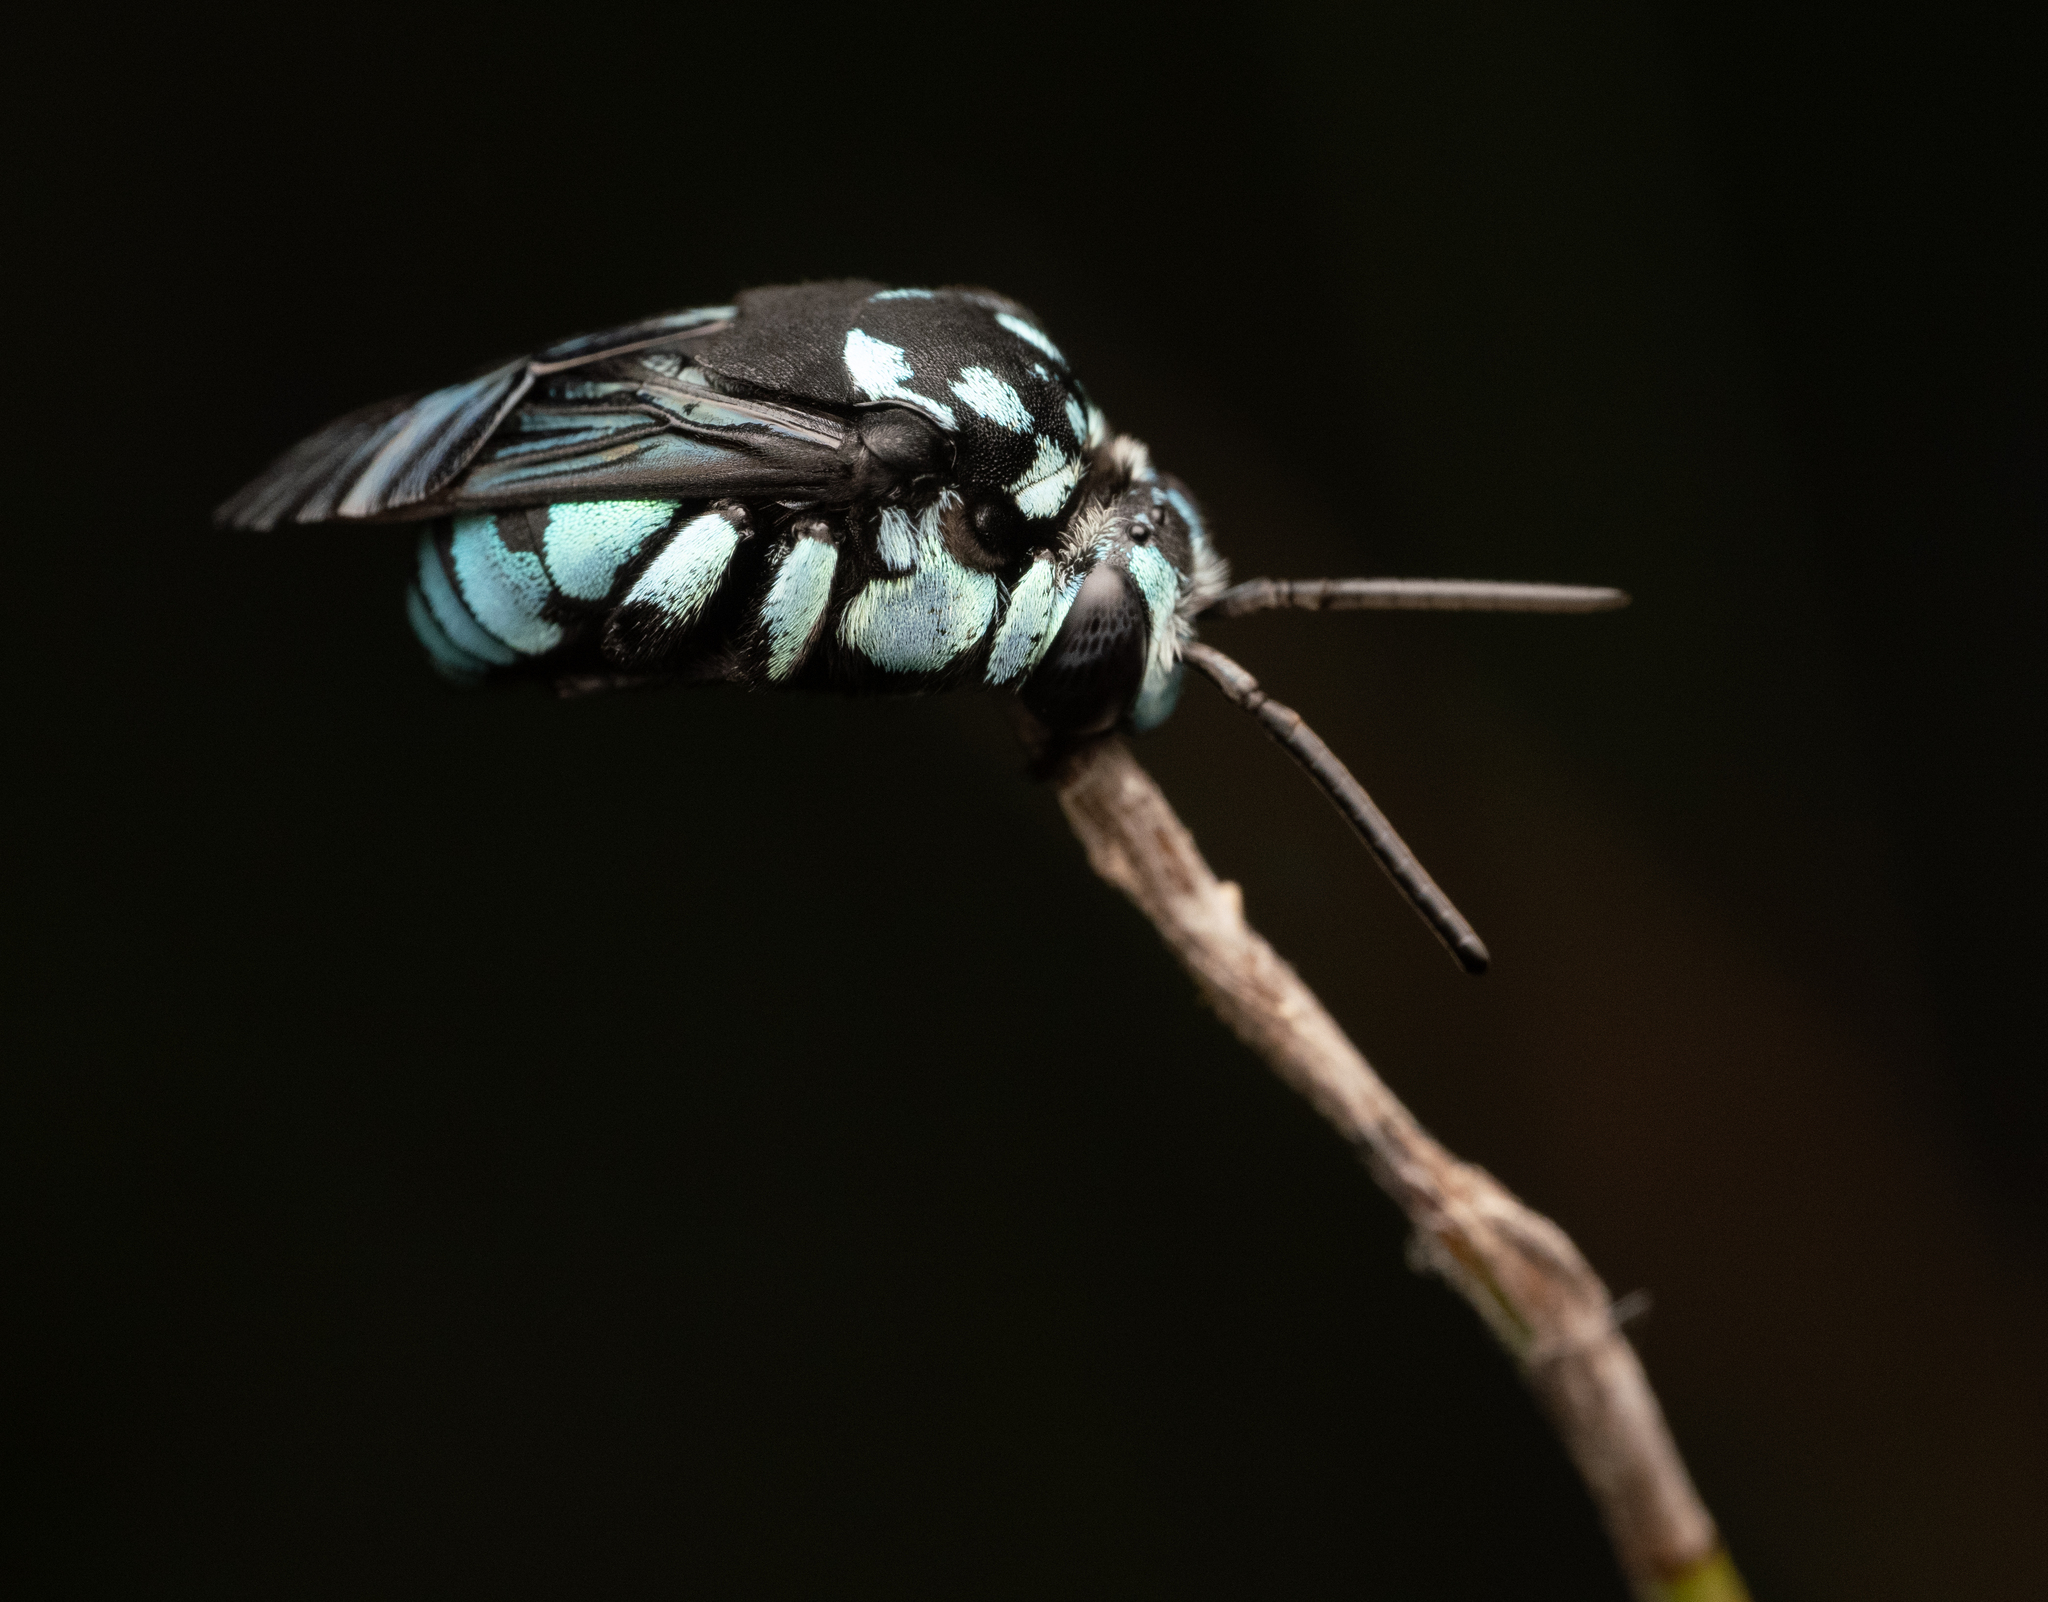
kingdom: Animalia
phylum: Arthropoda
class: Insecta
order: Hymenoptera
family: Apidae
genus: Thyreus
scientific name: Thyreus nitidulus
